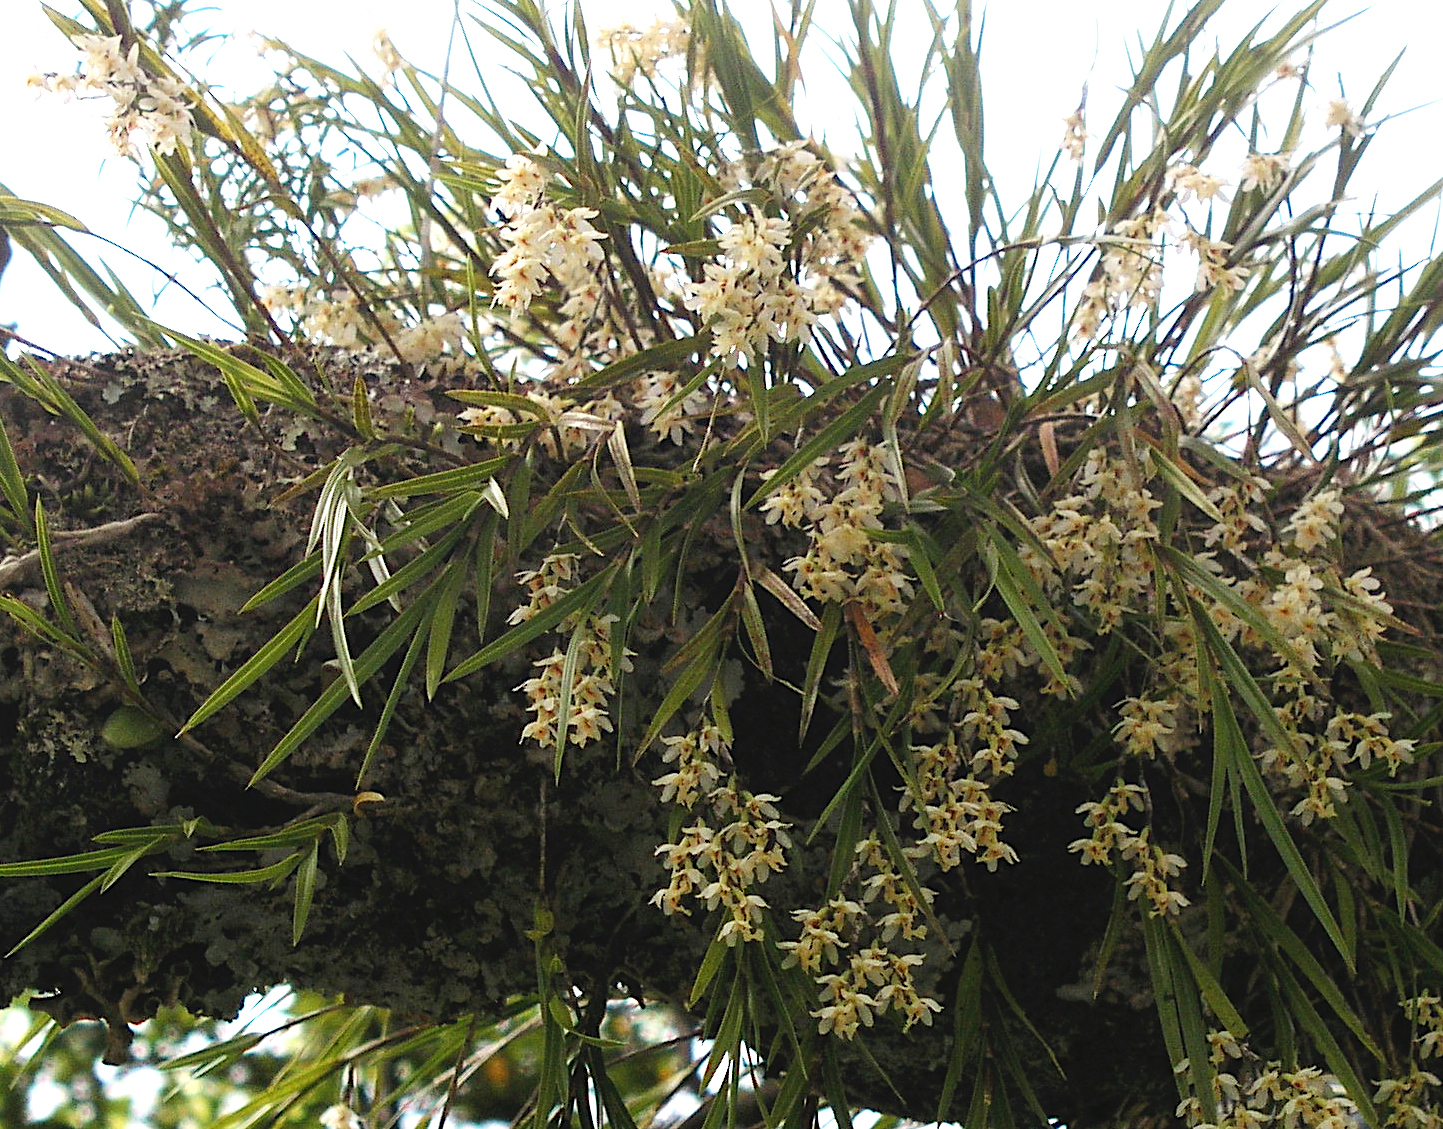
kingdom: Plantae
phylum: Tracheophyta
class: Liliopsida
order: Asparagales
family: Orchidaceae
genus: Earina
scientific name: Earina mucronata
